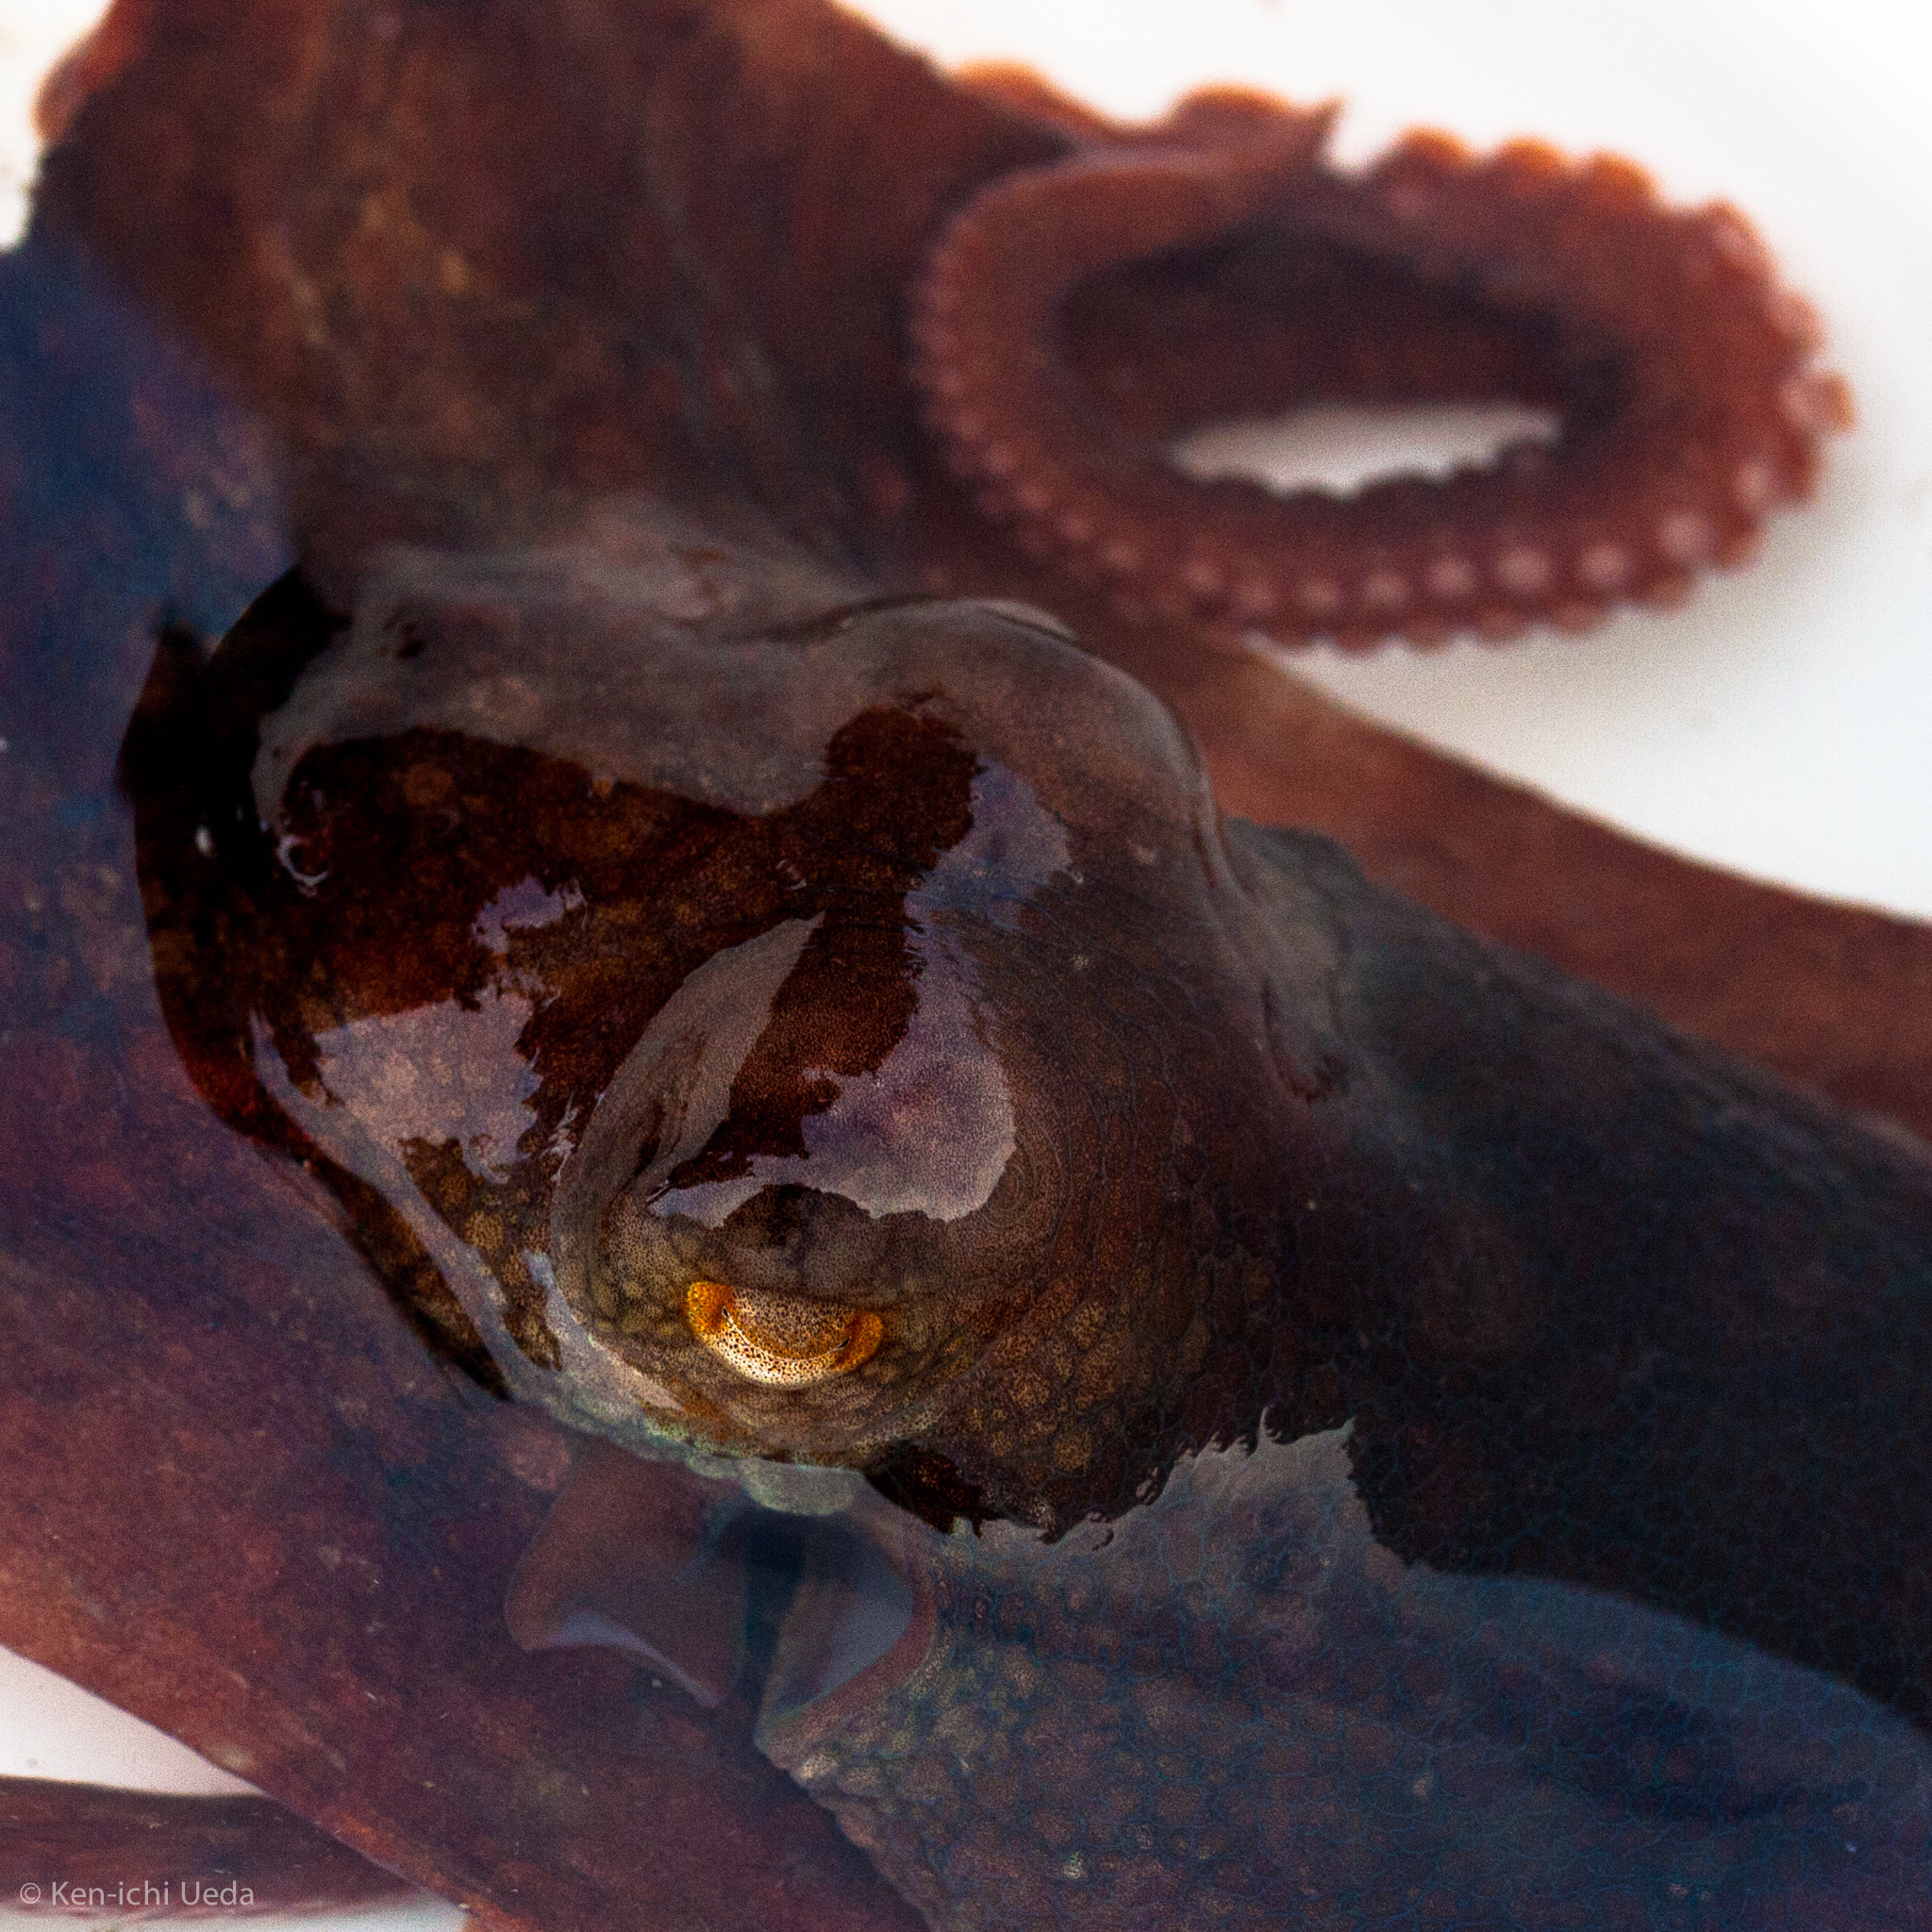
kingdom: Animalia
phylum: Mollusca
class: Cephalopoda
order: Octopoda
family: Octopodidae
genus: Octopus
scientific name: Octopus rubescens
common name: East pacific red octopus
